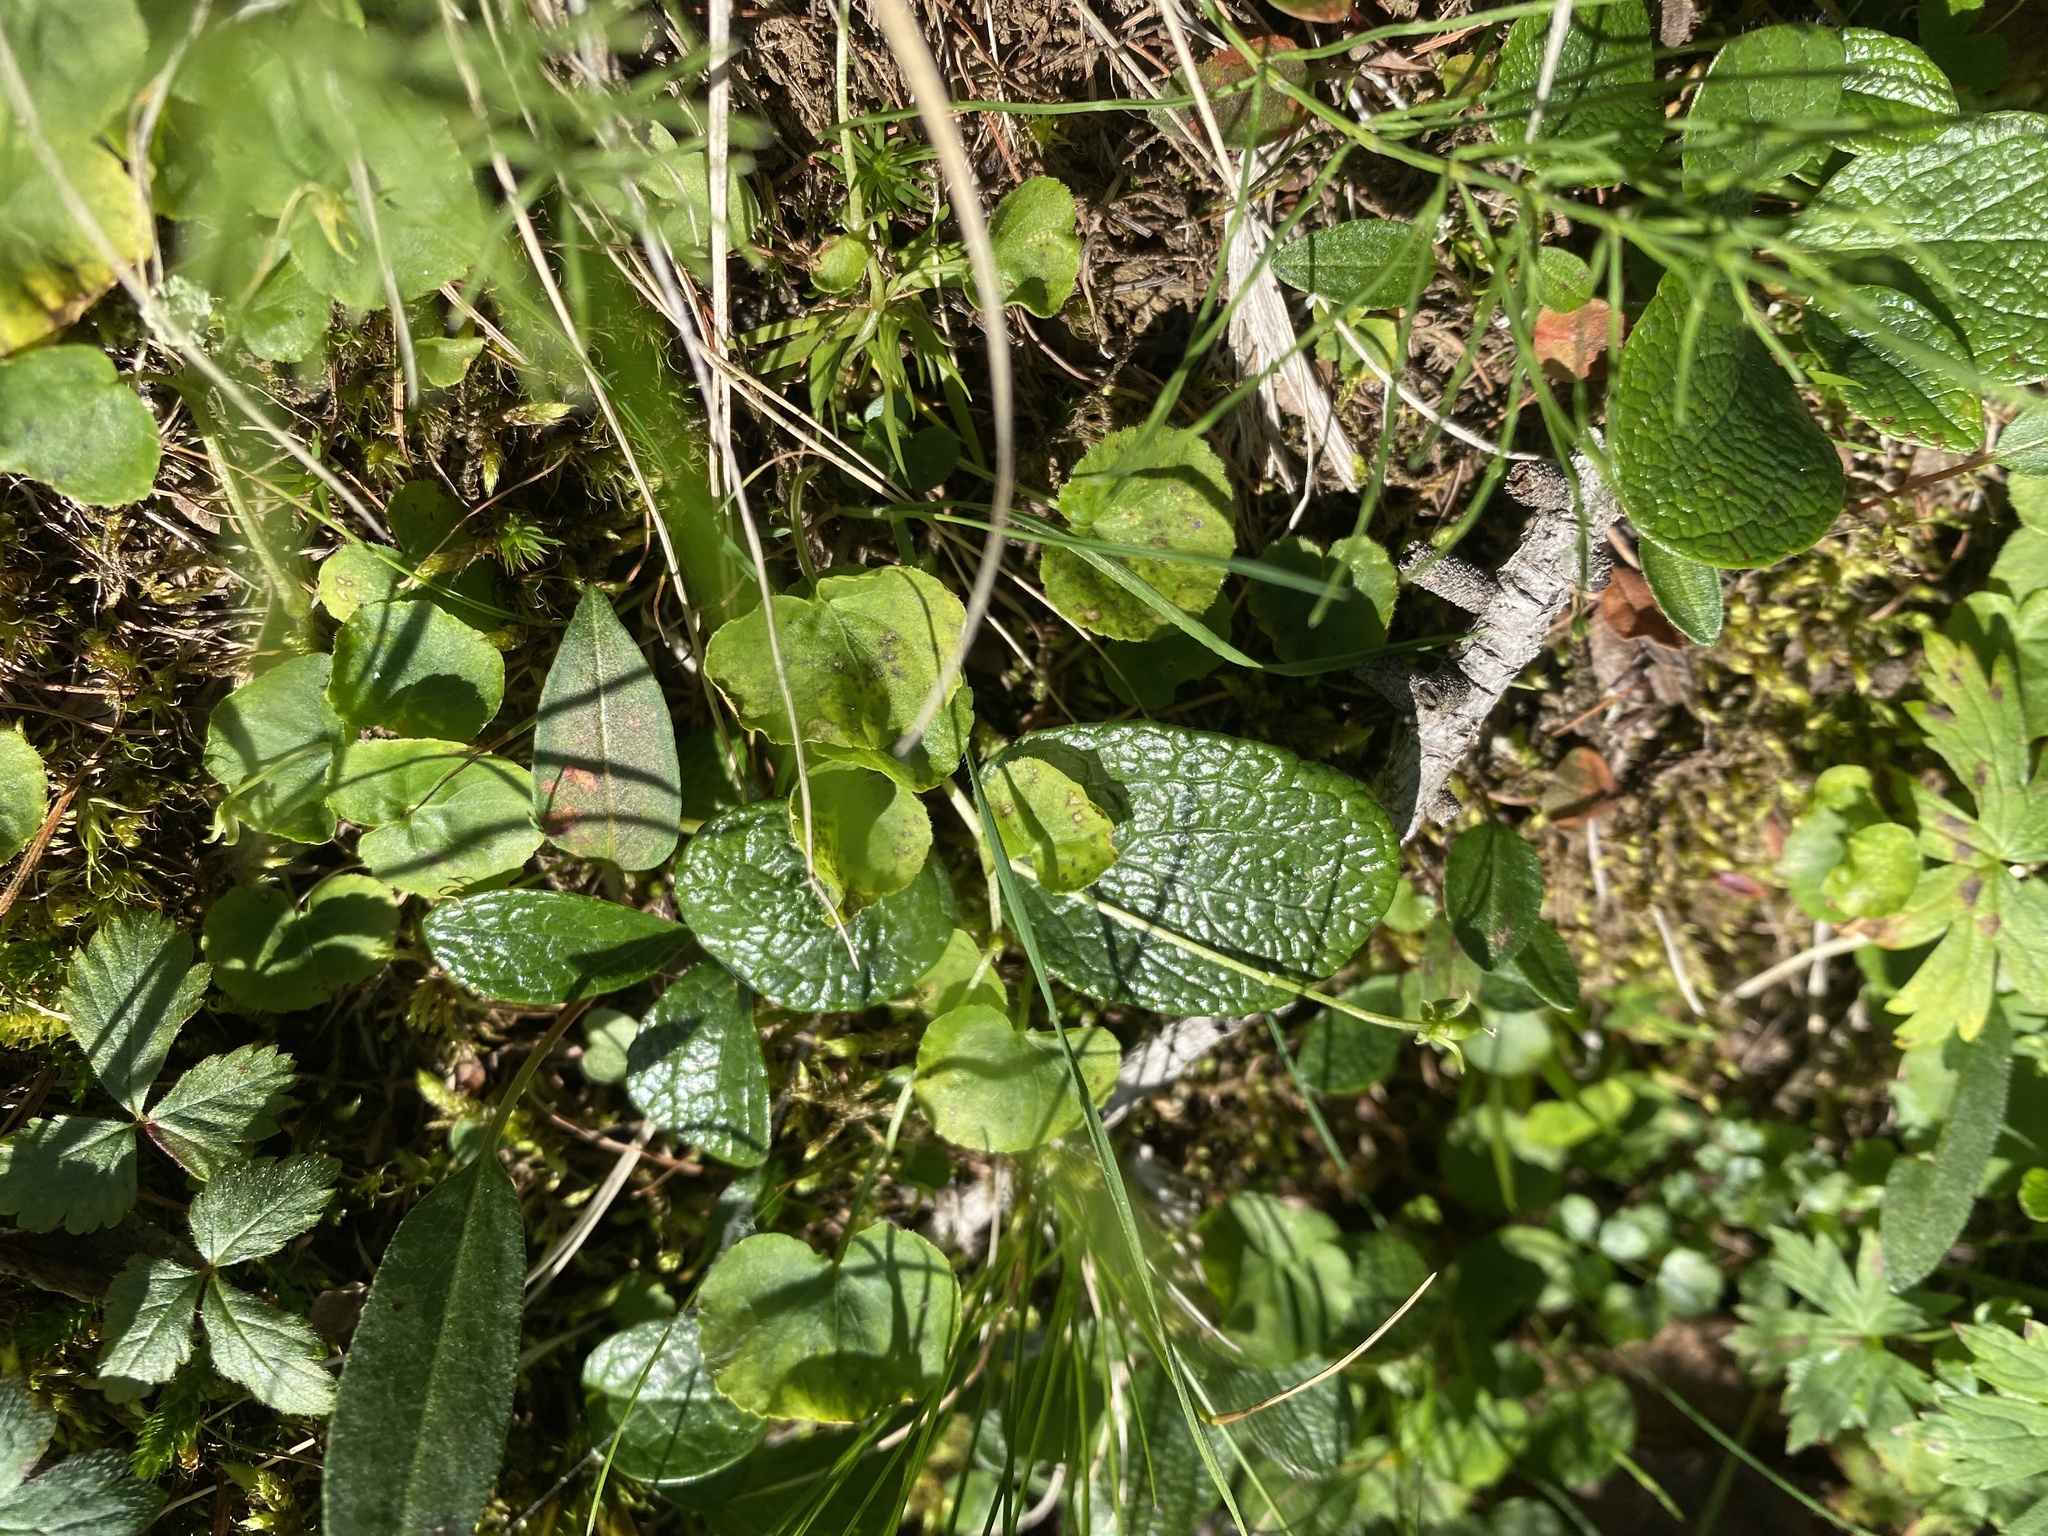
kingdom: Plantae
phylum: Tracheophyta
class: Magnoliopsida
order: Malpighiales
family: Salicaceae
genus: Salix
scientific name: Salix reticulata
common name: Net-leaved willow
